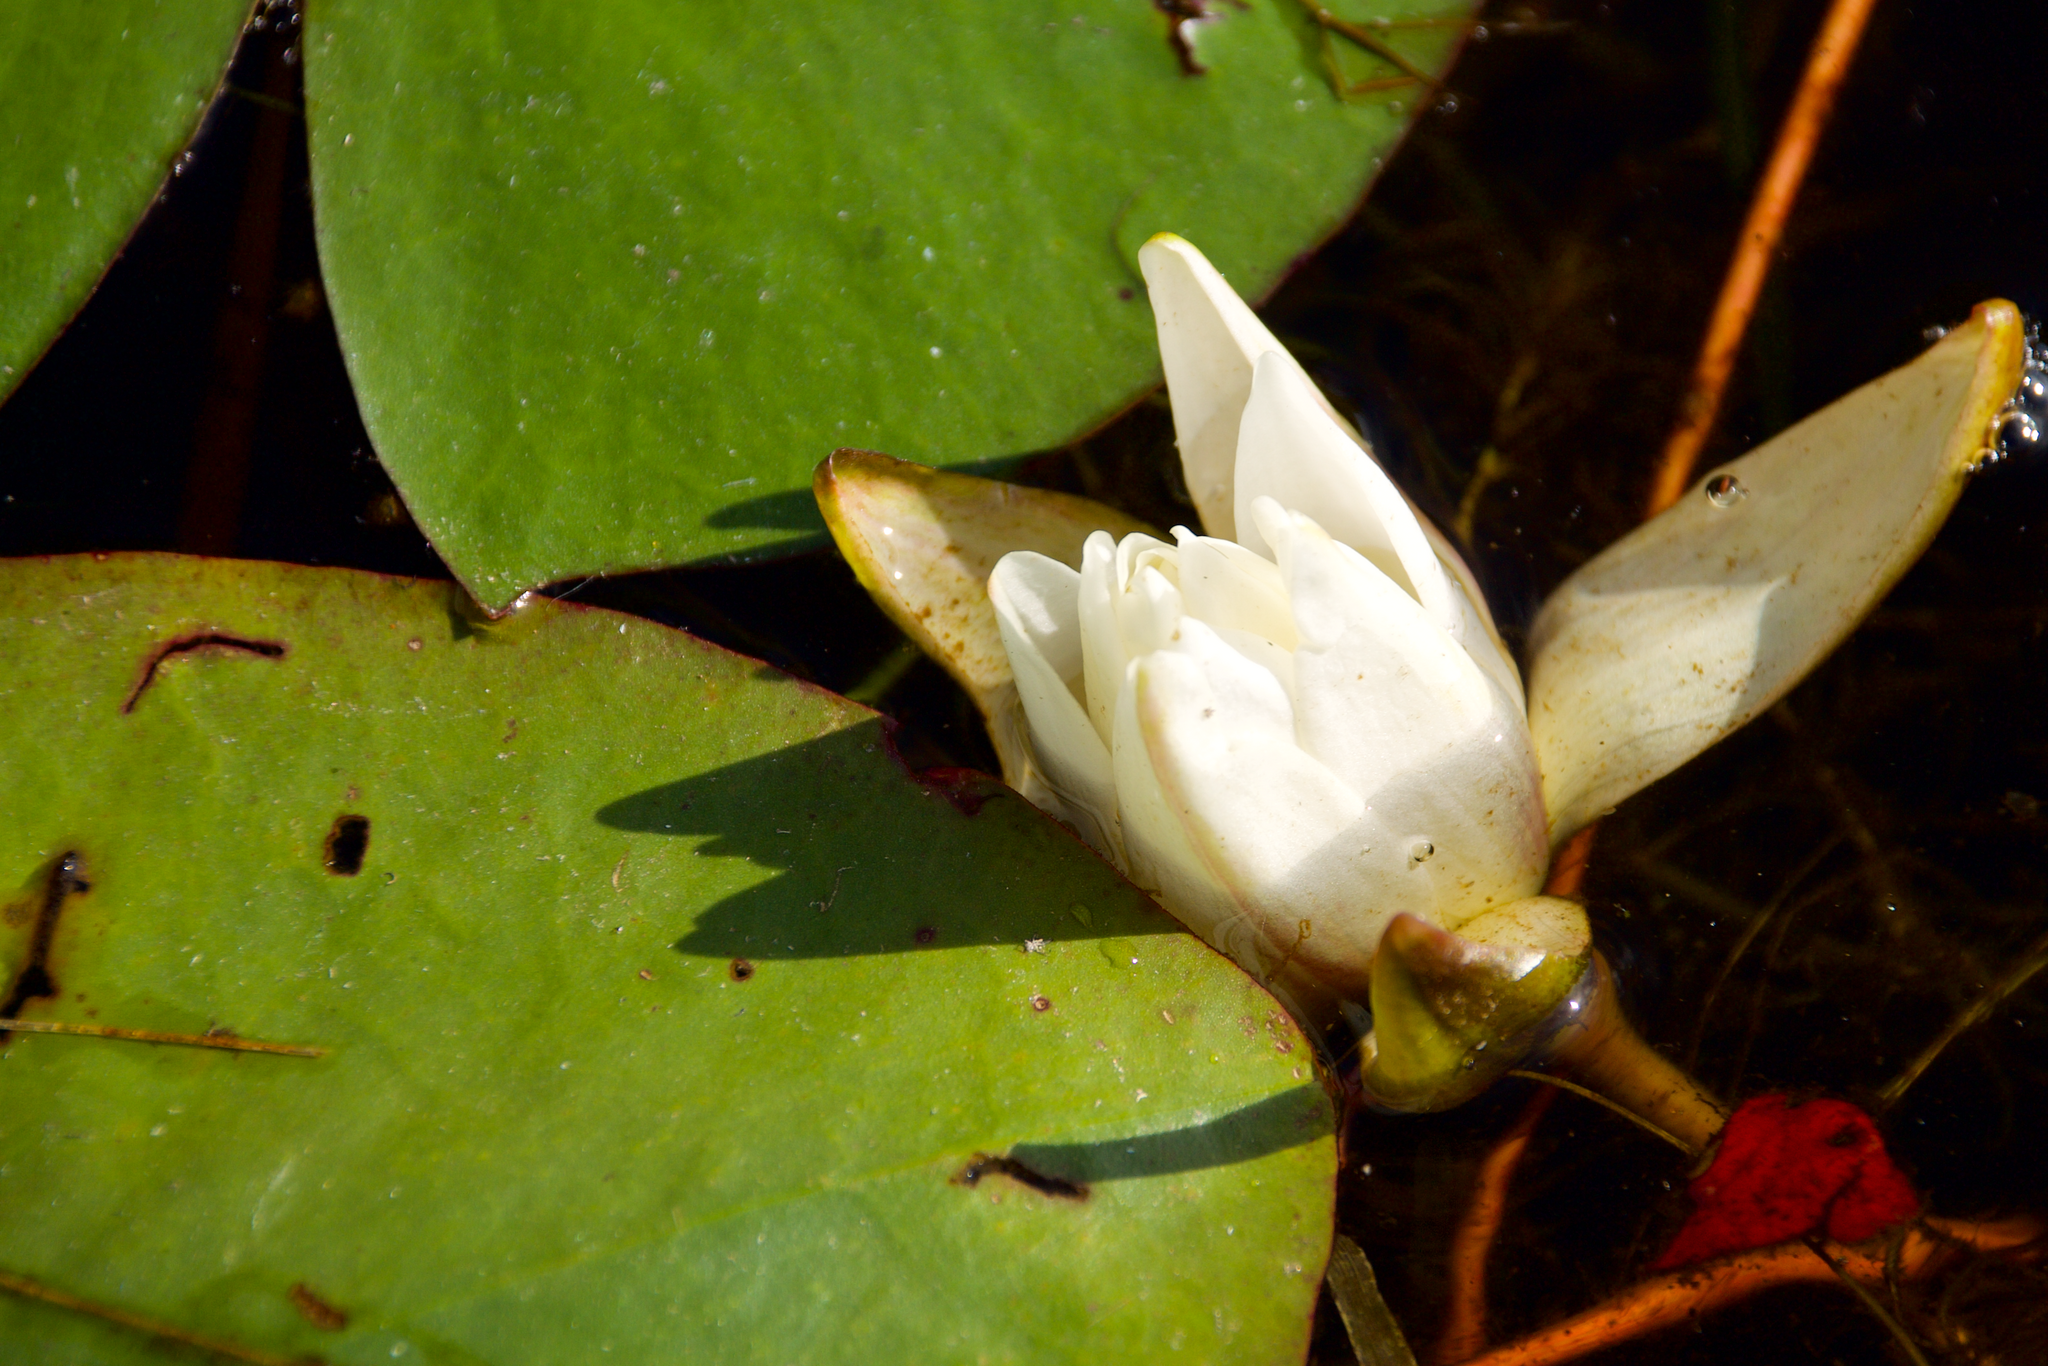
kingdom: Plantae
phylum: Tracheophyta
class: Magnoliopsida
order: Nymphaeales
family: Nymphaeaceae
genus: Nymphaea
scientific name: Nymphaea odorata
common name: Fragrant water-lily
